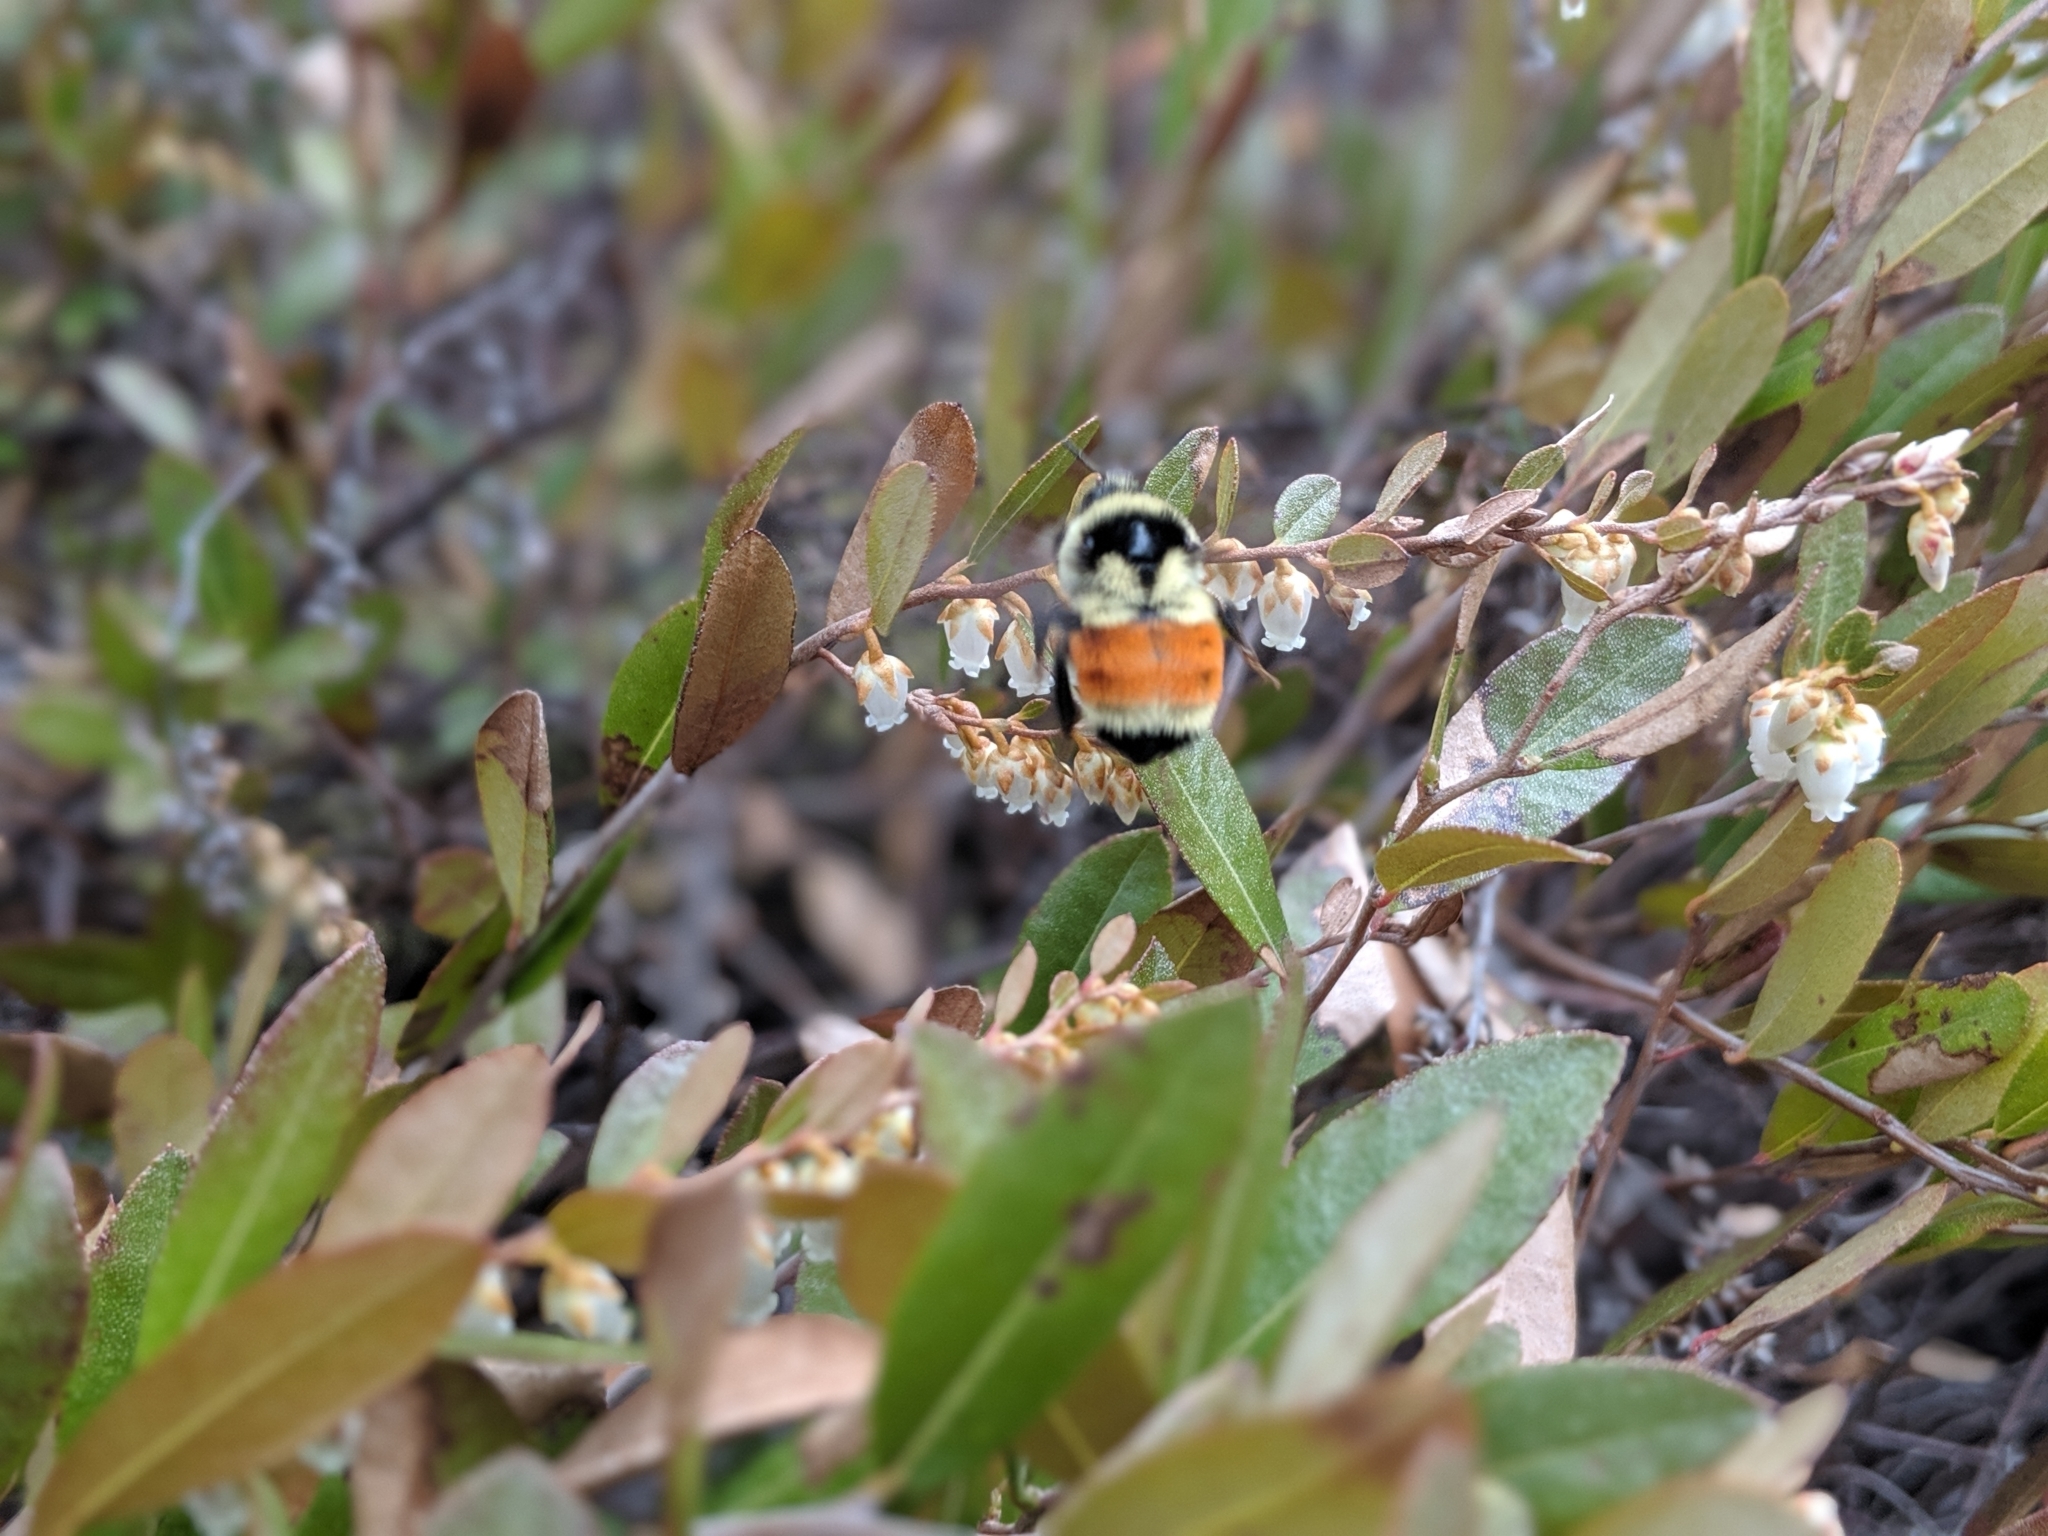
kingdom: Animalia
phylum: Arthropoda
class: Insecta
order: Hymenoptera
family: Apidae
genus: Bombus
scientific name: Bombus ternarius
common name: Tri-colored bumble bee
